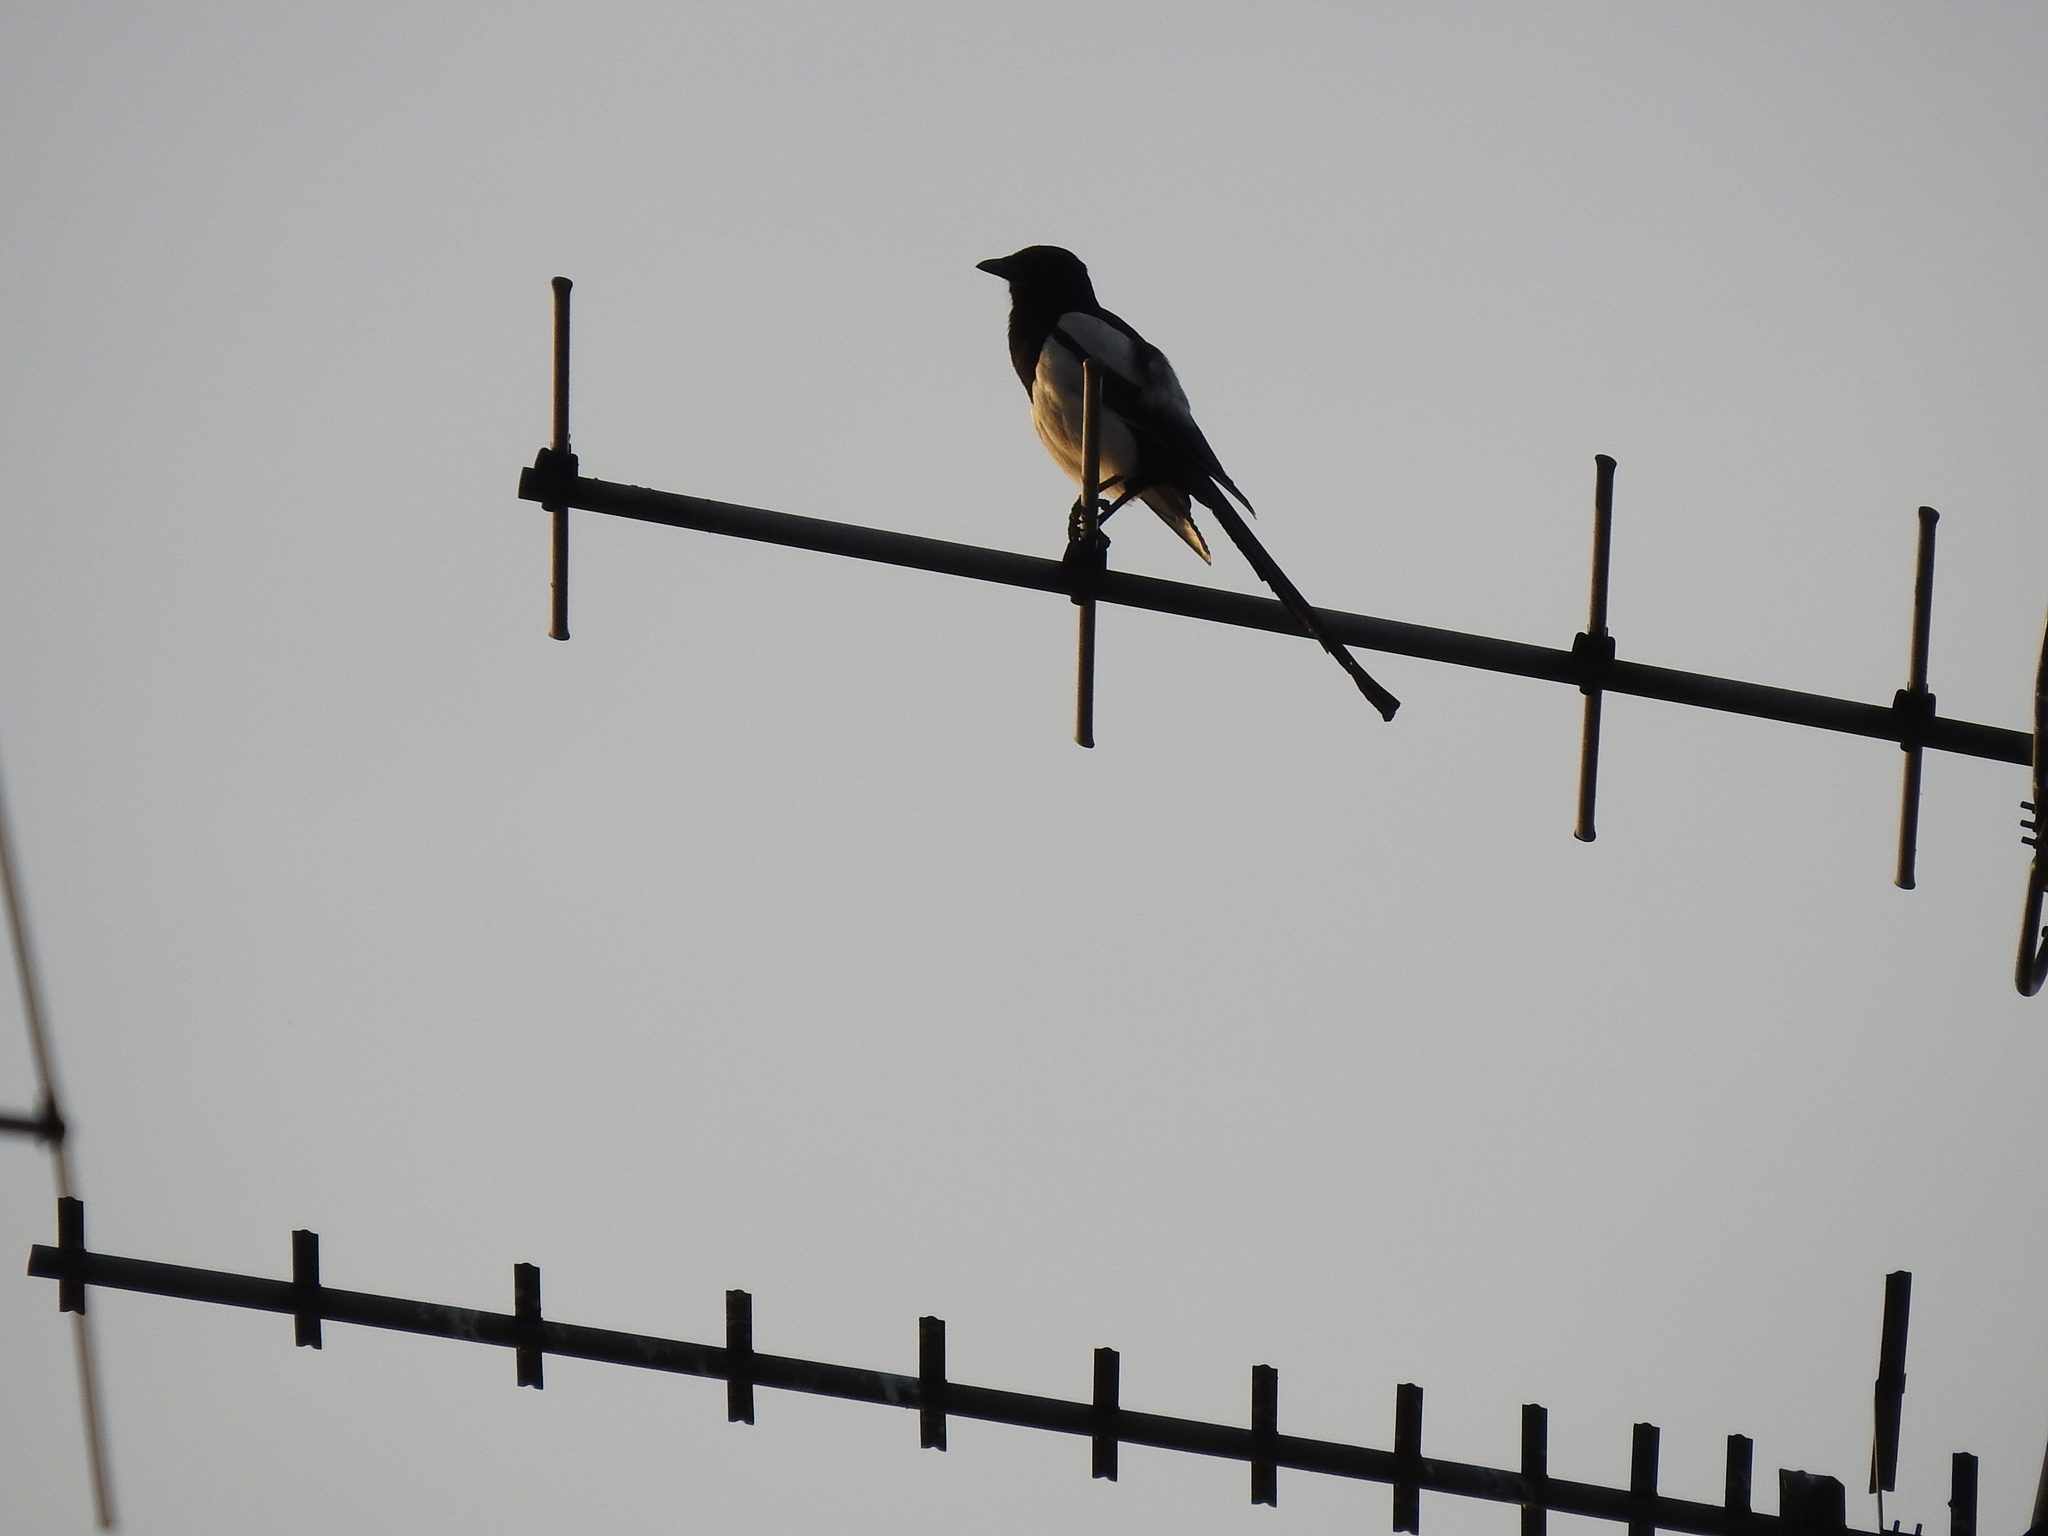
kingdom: Animalia
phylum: Chordata
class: Aves
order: Passeriformes
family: Corvidae
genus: Pica
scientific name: Pica pica
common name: Eurasian magpie
